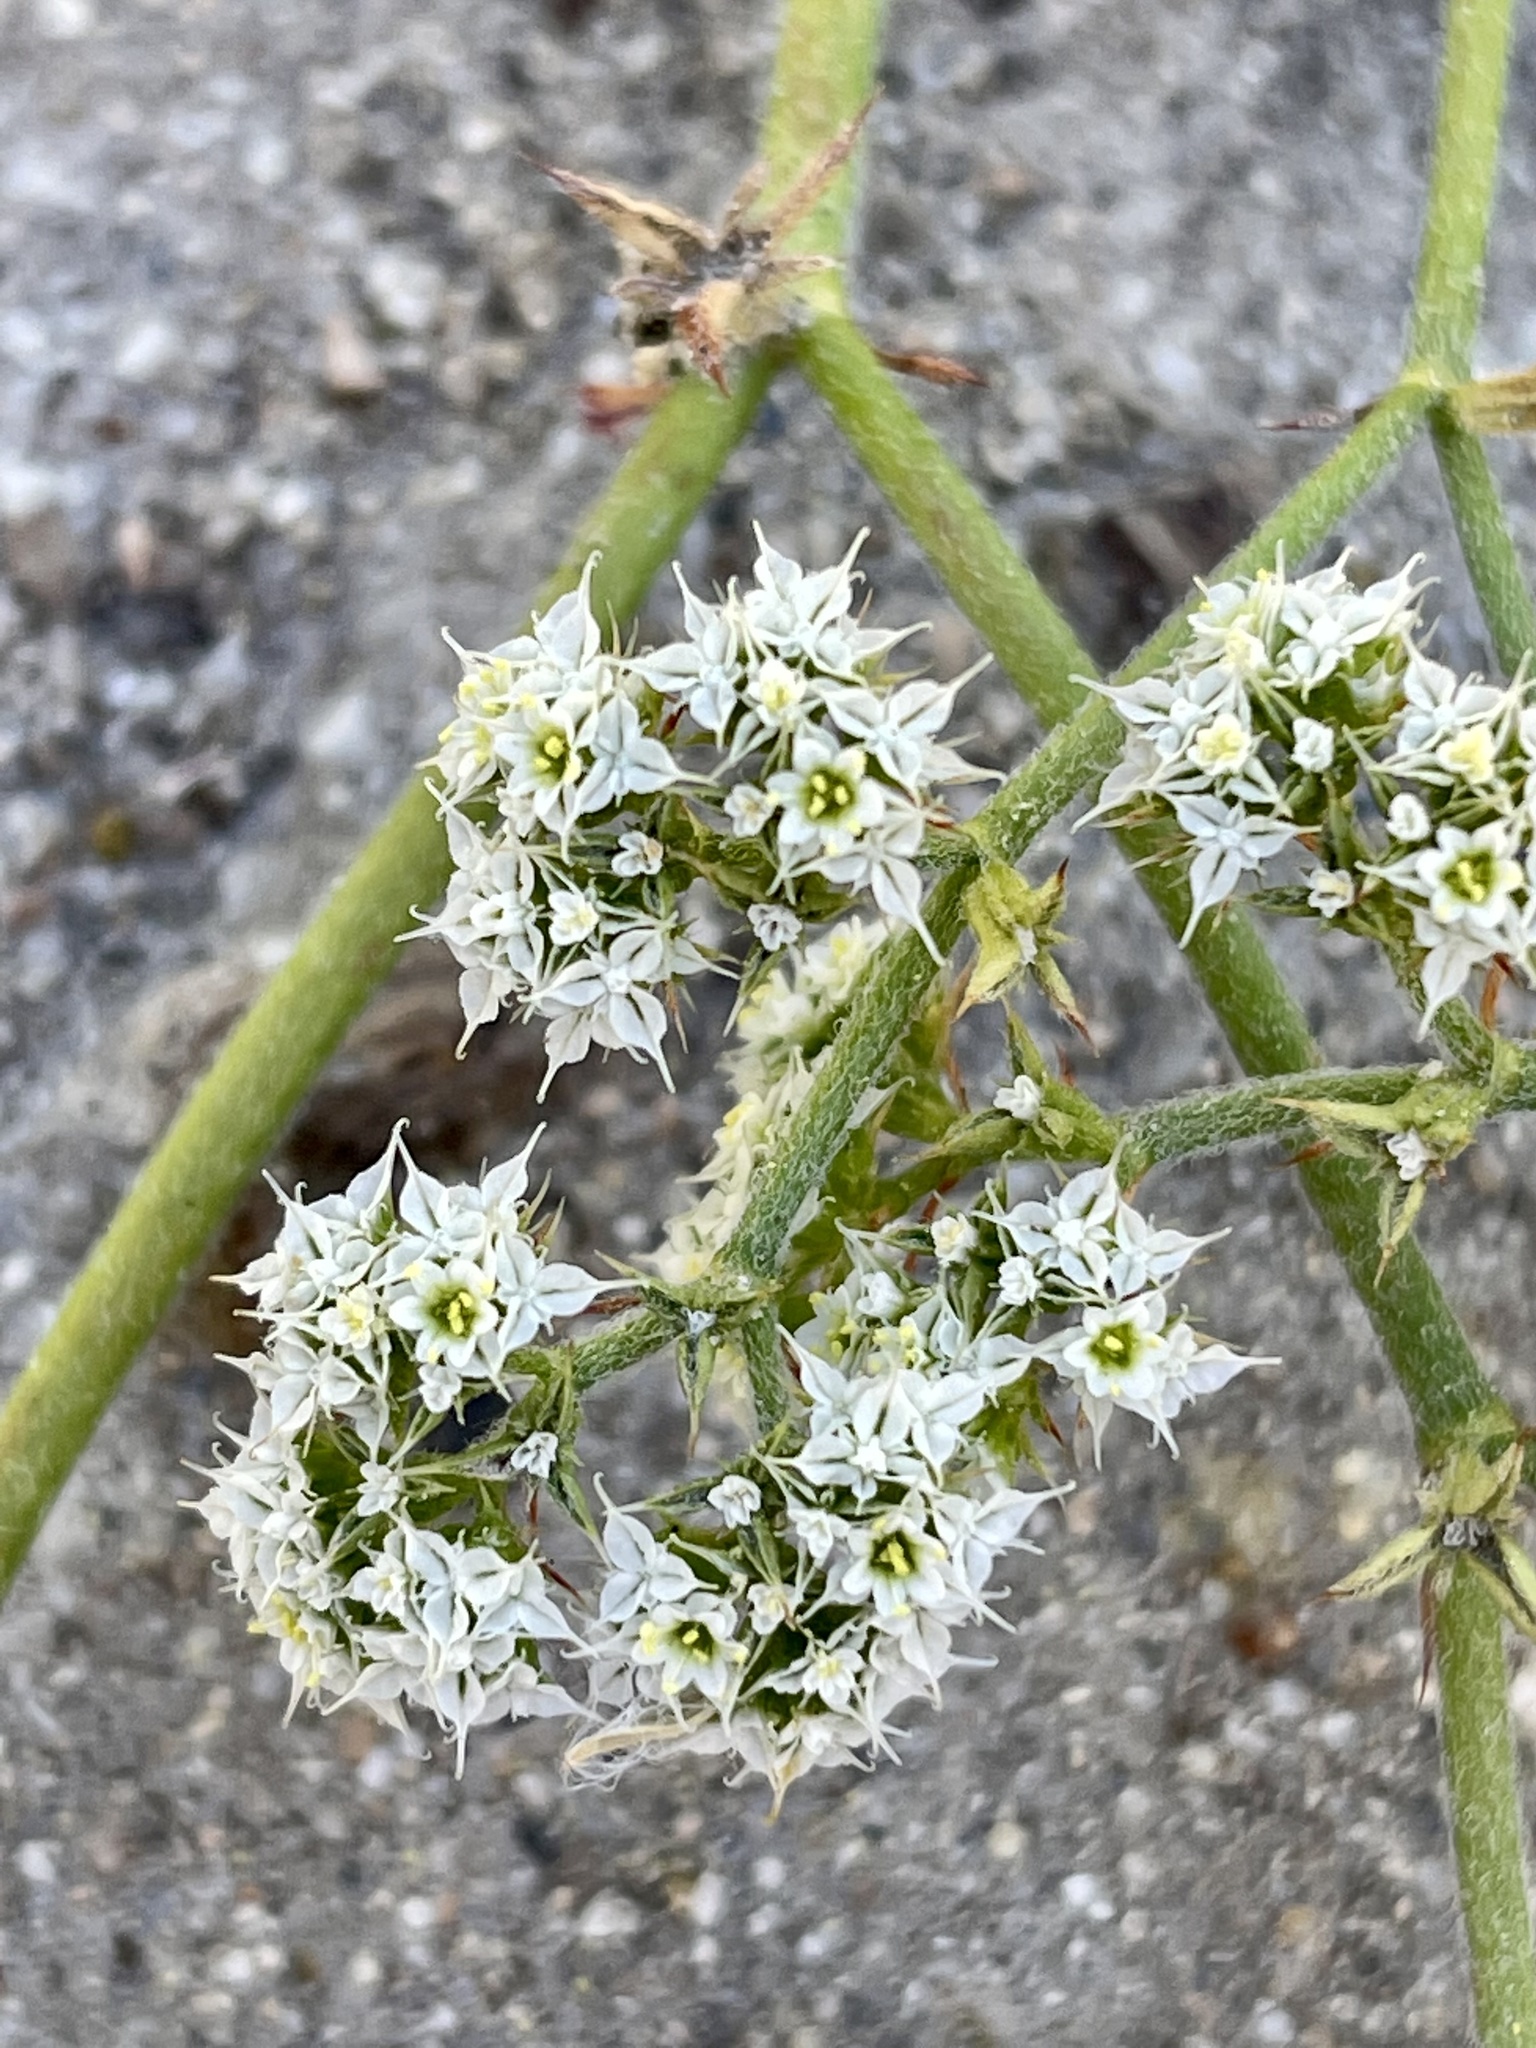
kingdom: Plantae
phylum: Tracheophyta
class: Magnoliopsida
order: Caryophyllales
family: Polygonaceae
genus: Chorizanthe
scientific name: Chorizanthe diffusa
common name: Diffuse spineflower
